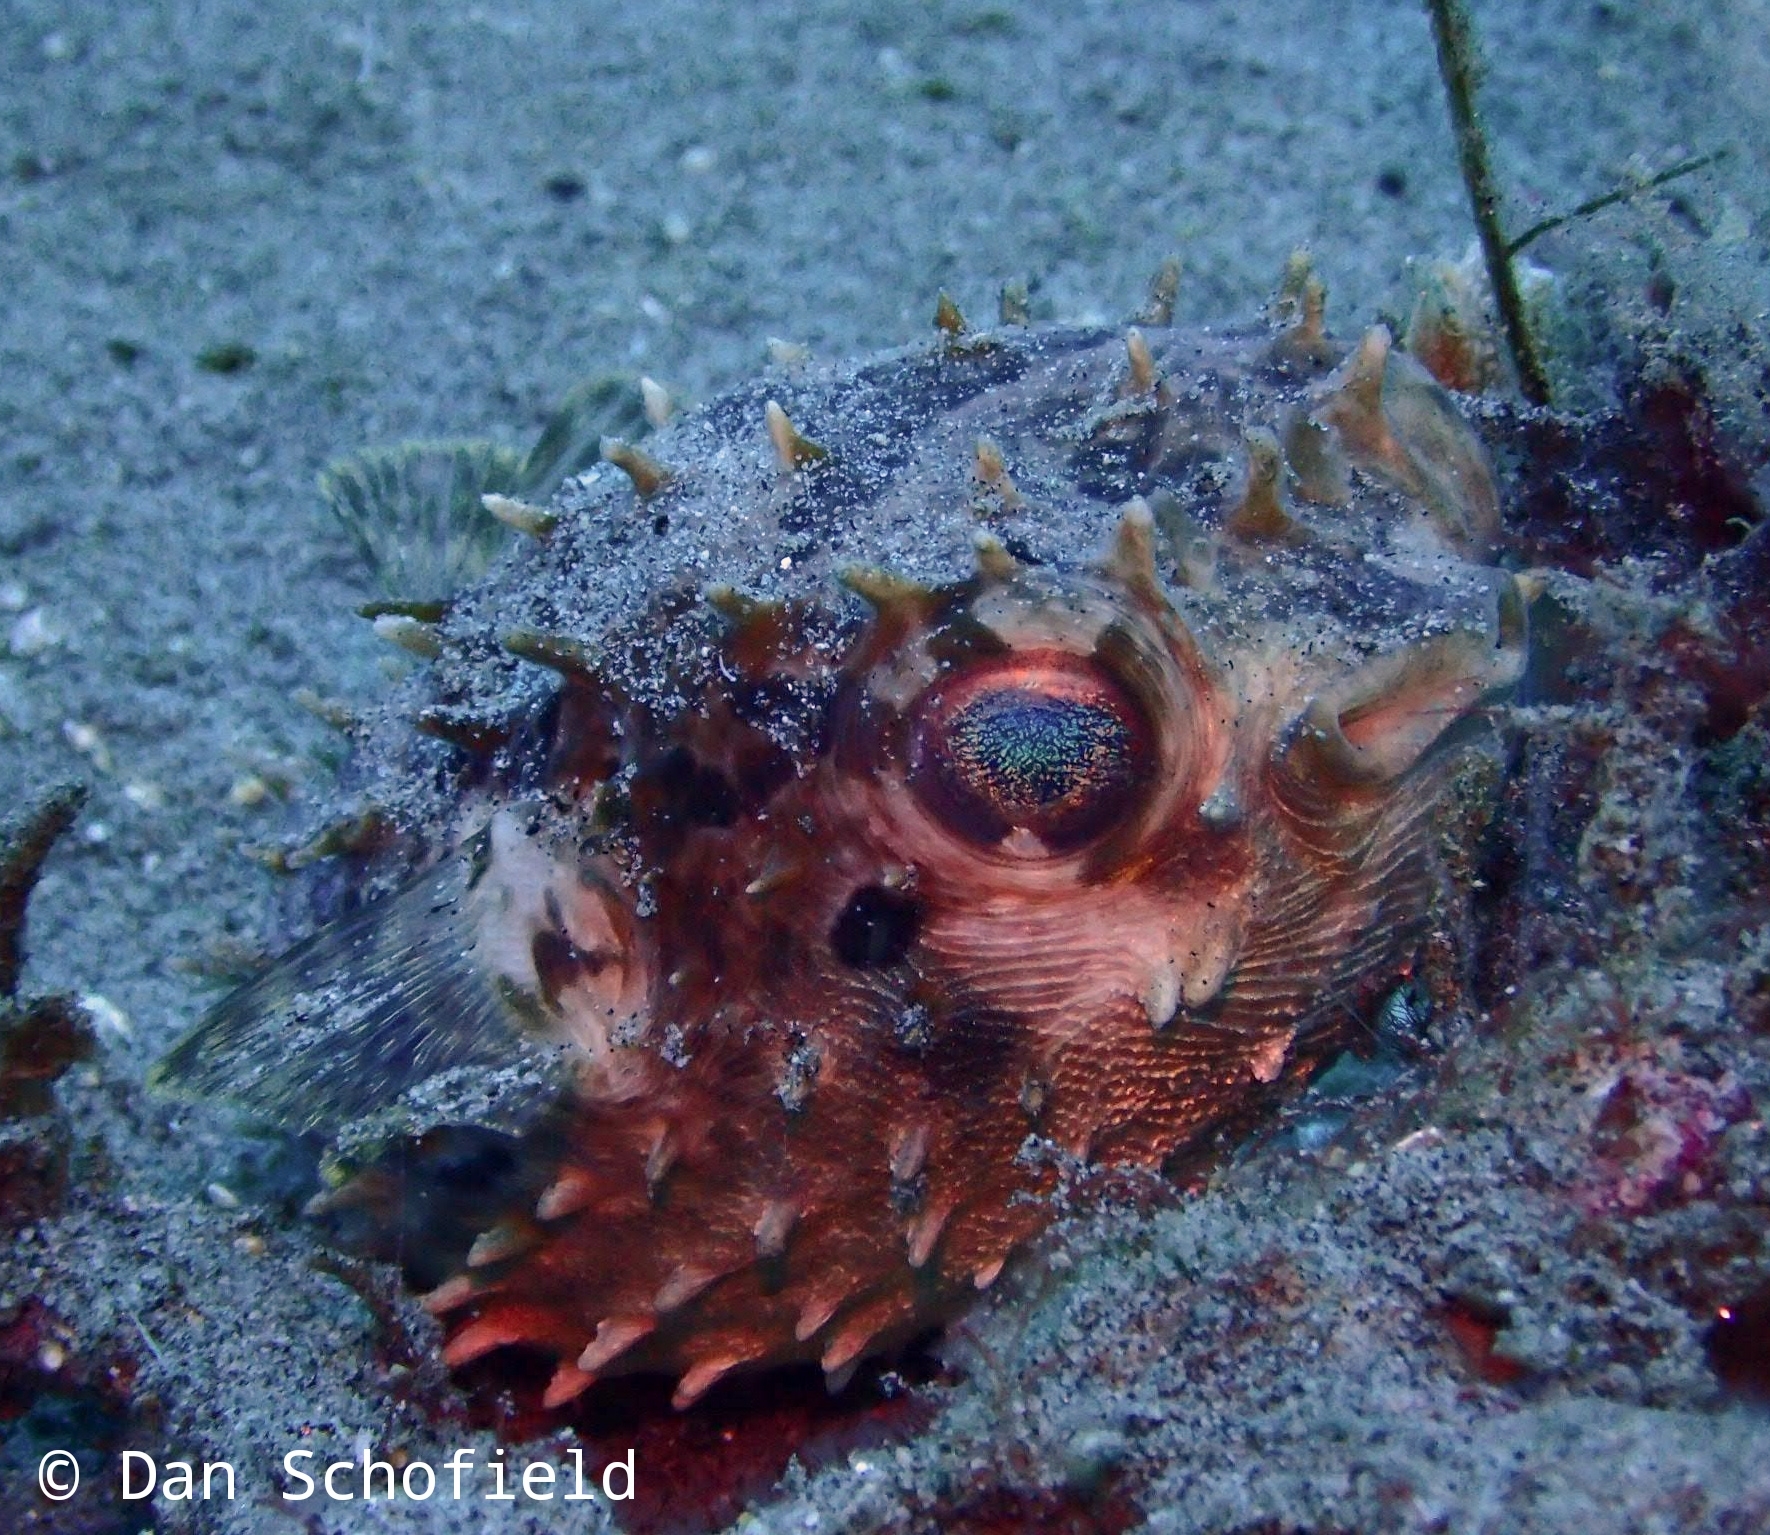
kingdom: Animalia
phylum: Chordata
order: Tetraodontiformes
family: Diodontidae
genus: Cyclichthys
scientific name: Cyclichthys orbicularis
